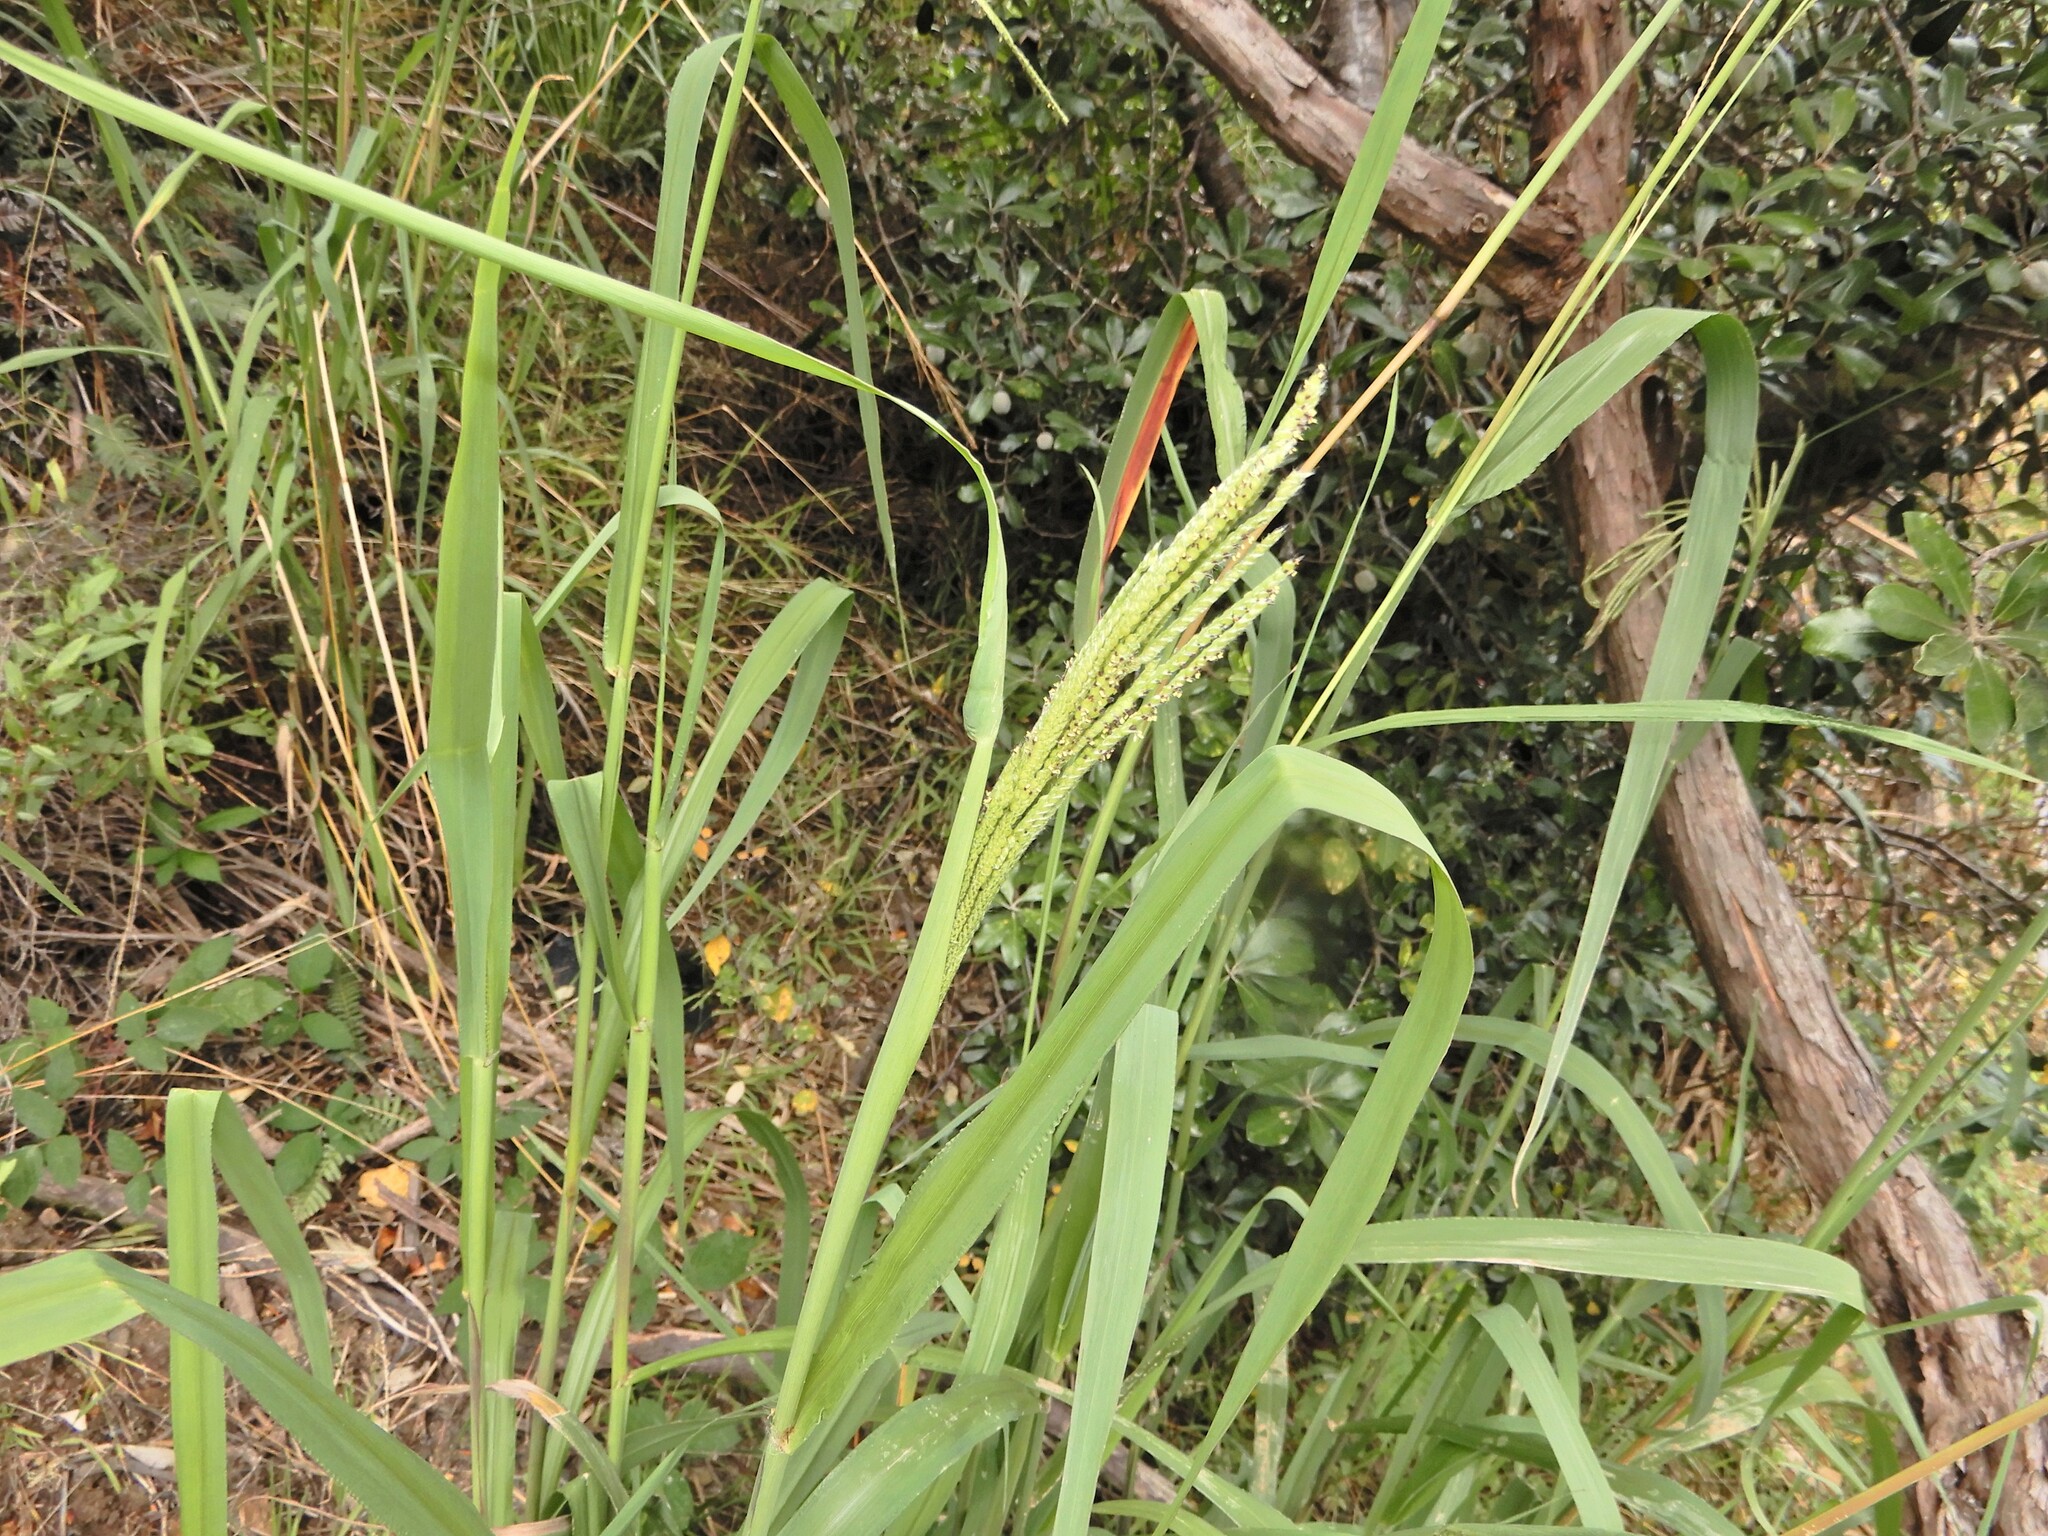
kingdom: Plantae
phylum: Tracheophyta
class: Liliopsida
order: Poales
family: Poaceae
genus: Paspalum
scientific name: Paspalum urvillei
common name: Vasey's grass
